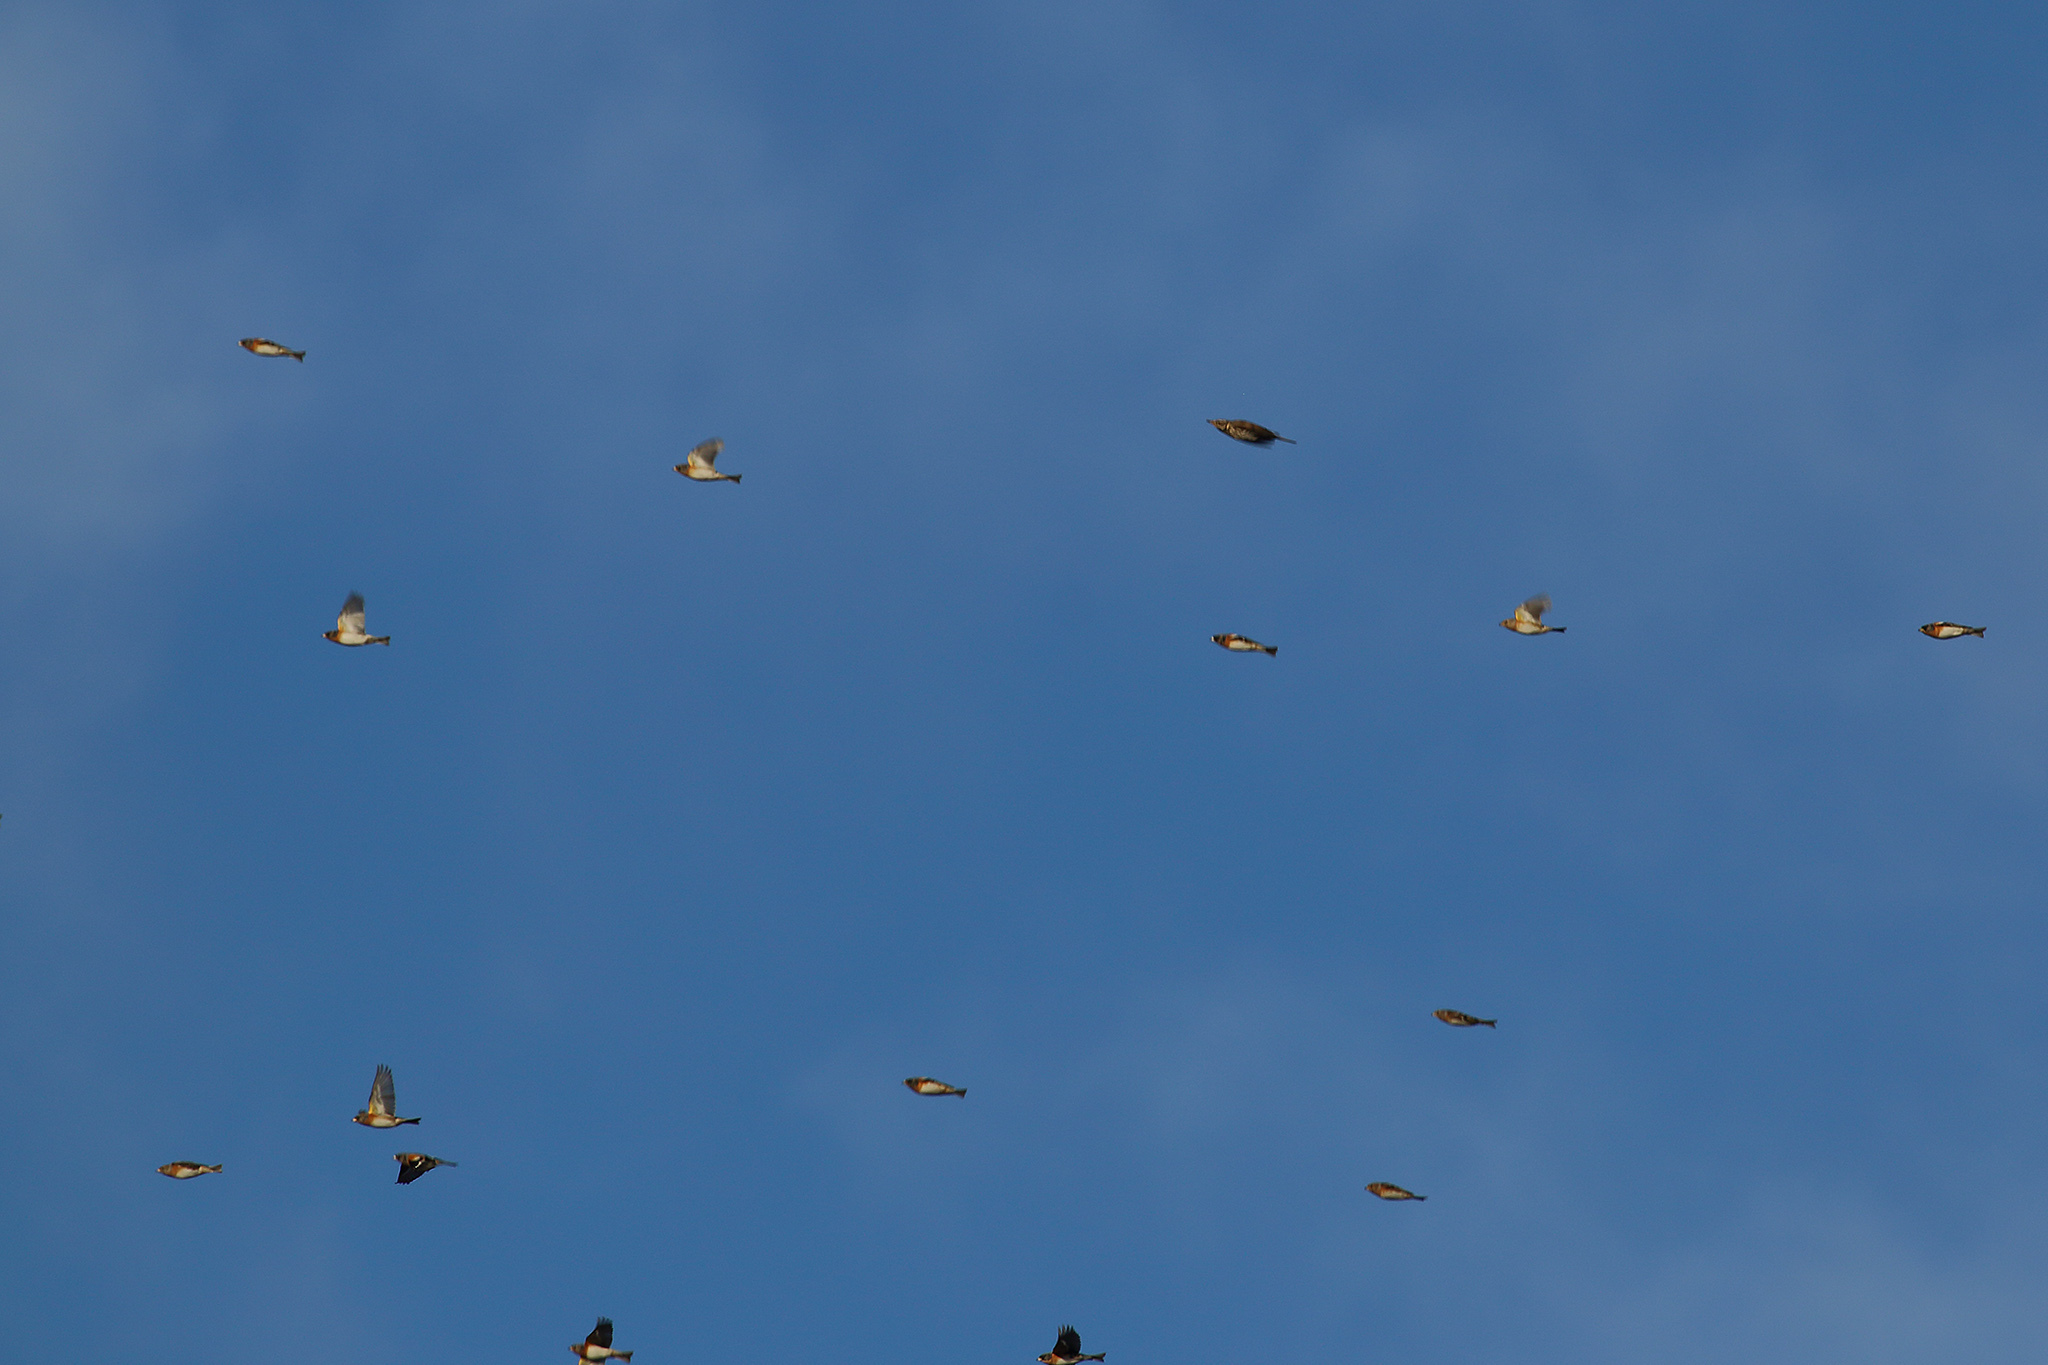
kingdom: Animalia
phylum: Chordata
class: Aves
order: Passeriformes
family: Fringillidae
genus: Fringilla
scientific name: Fringilla montifringilla
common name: Brambling
